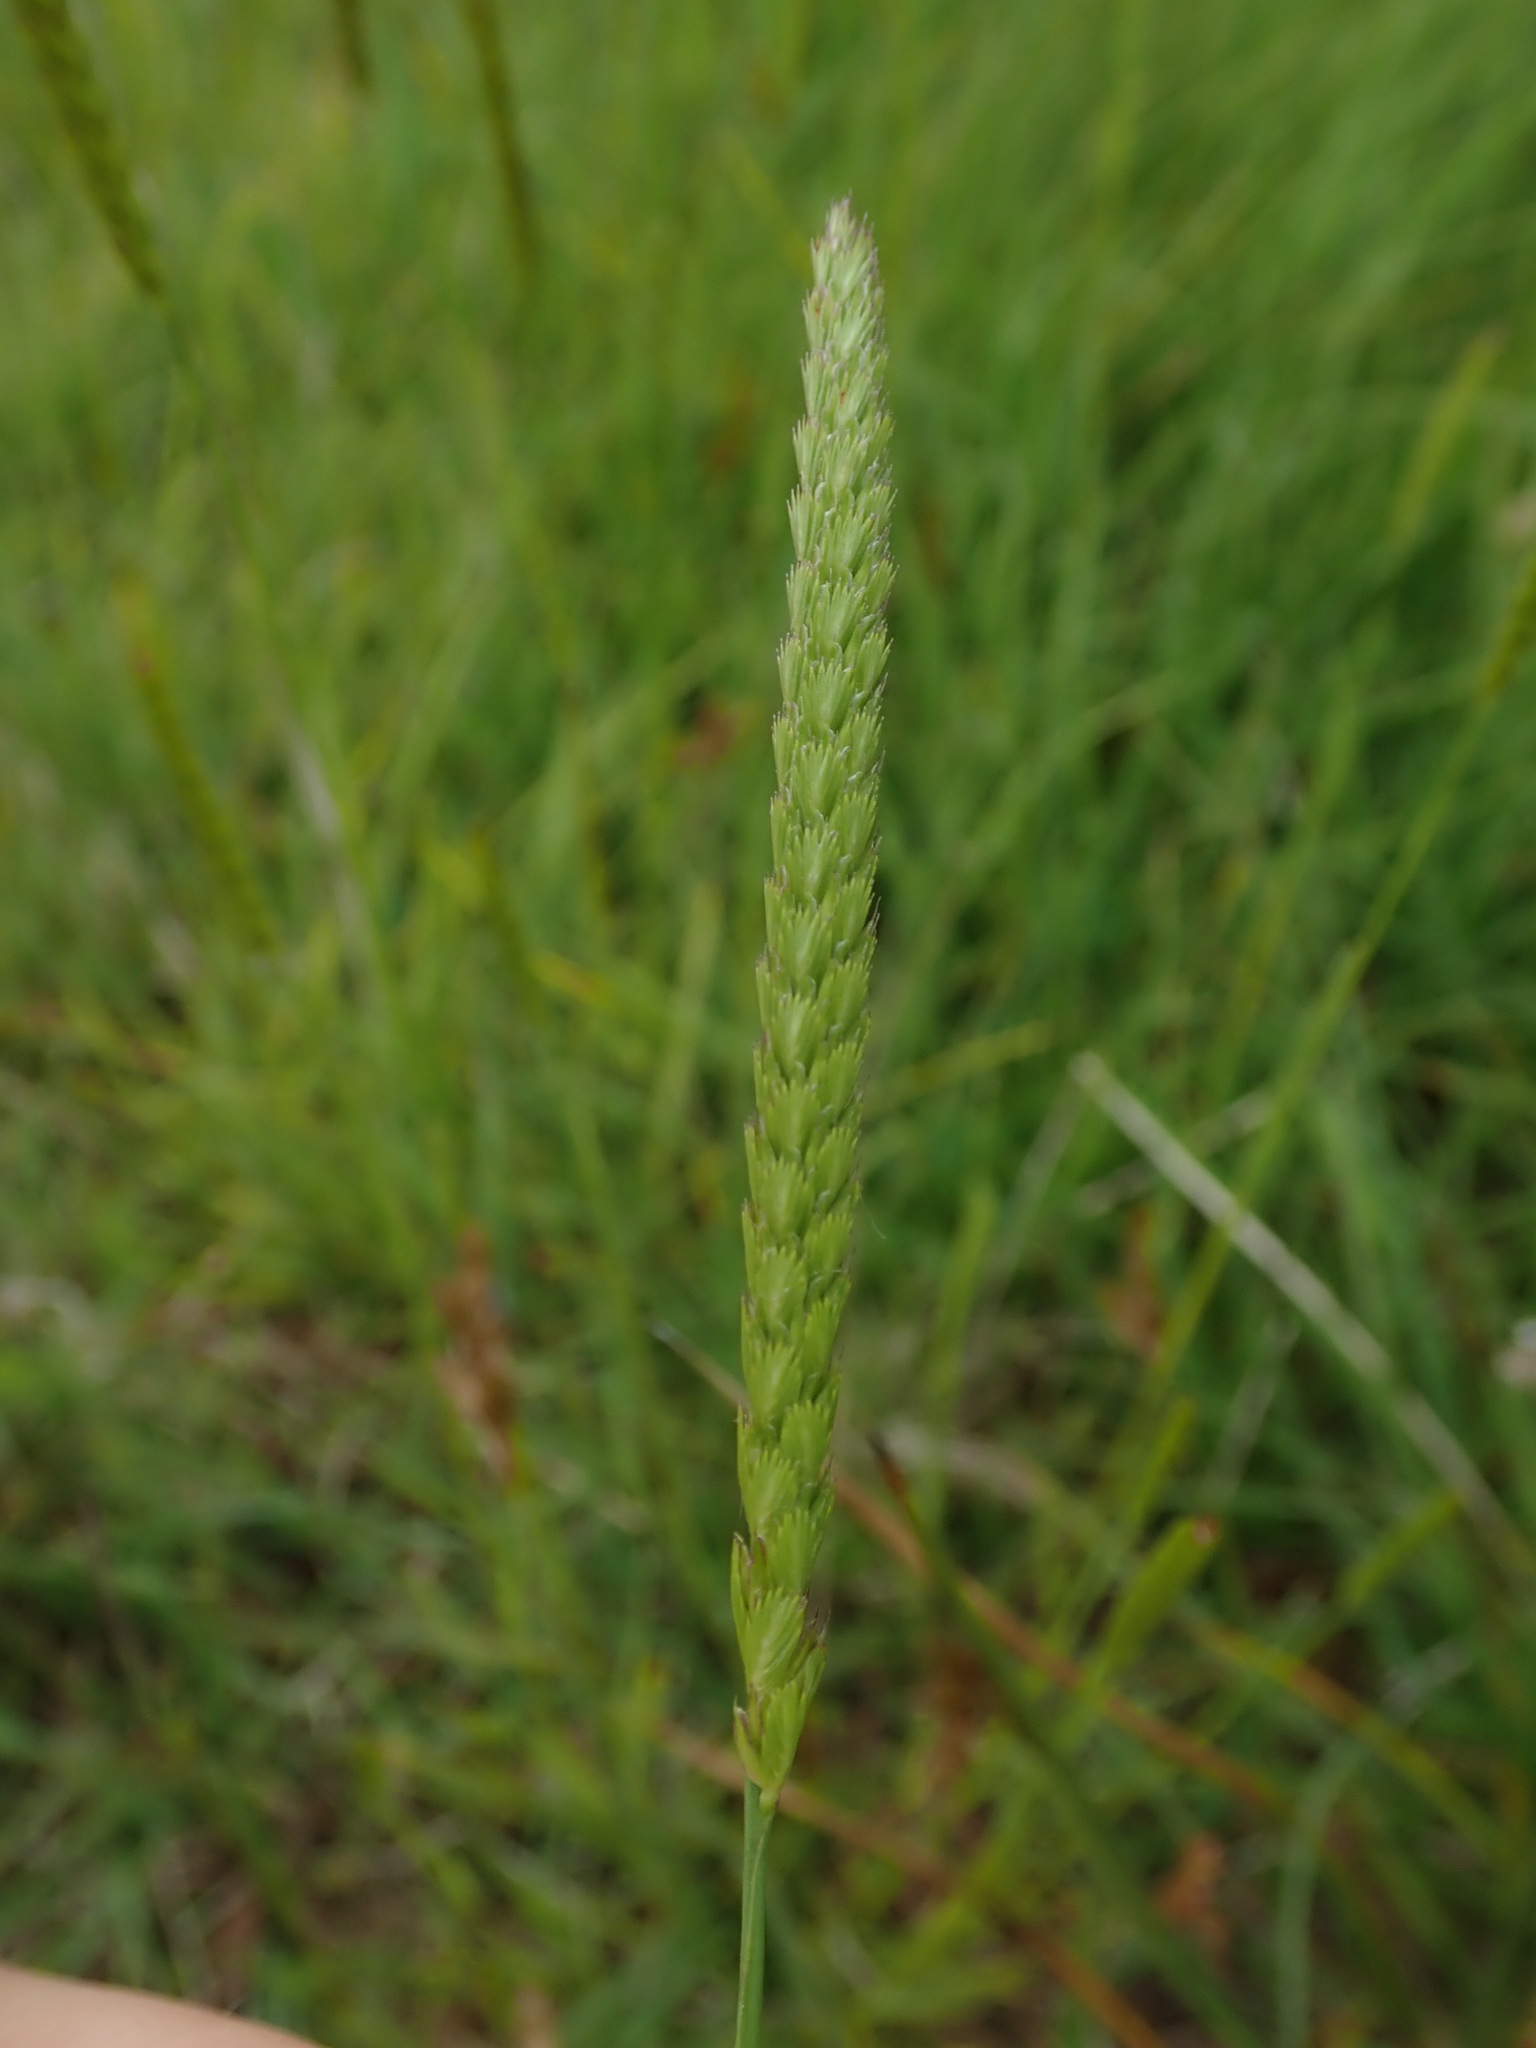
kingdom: Plantae
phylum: Tracheophyta
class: Liliopsida
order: Poales
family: Poaceae
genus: Cynosurus
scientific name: Cynosurus cristatus
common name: Crested dog's-tail
